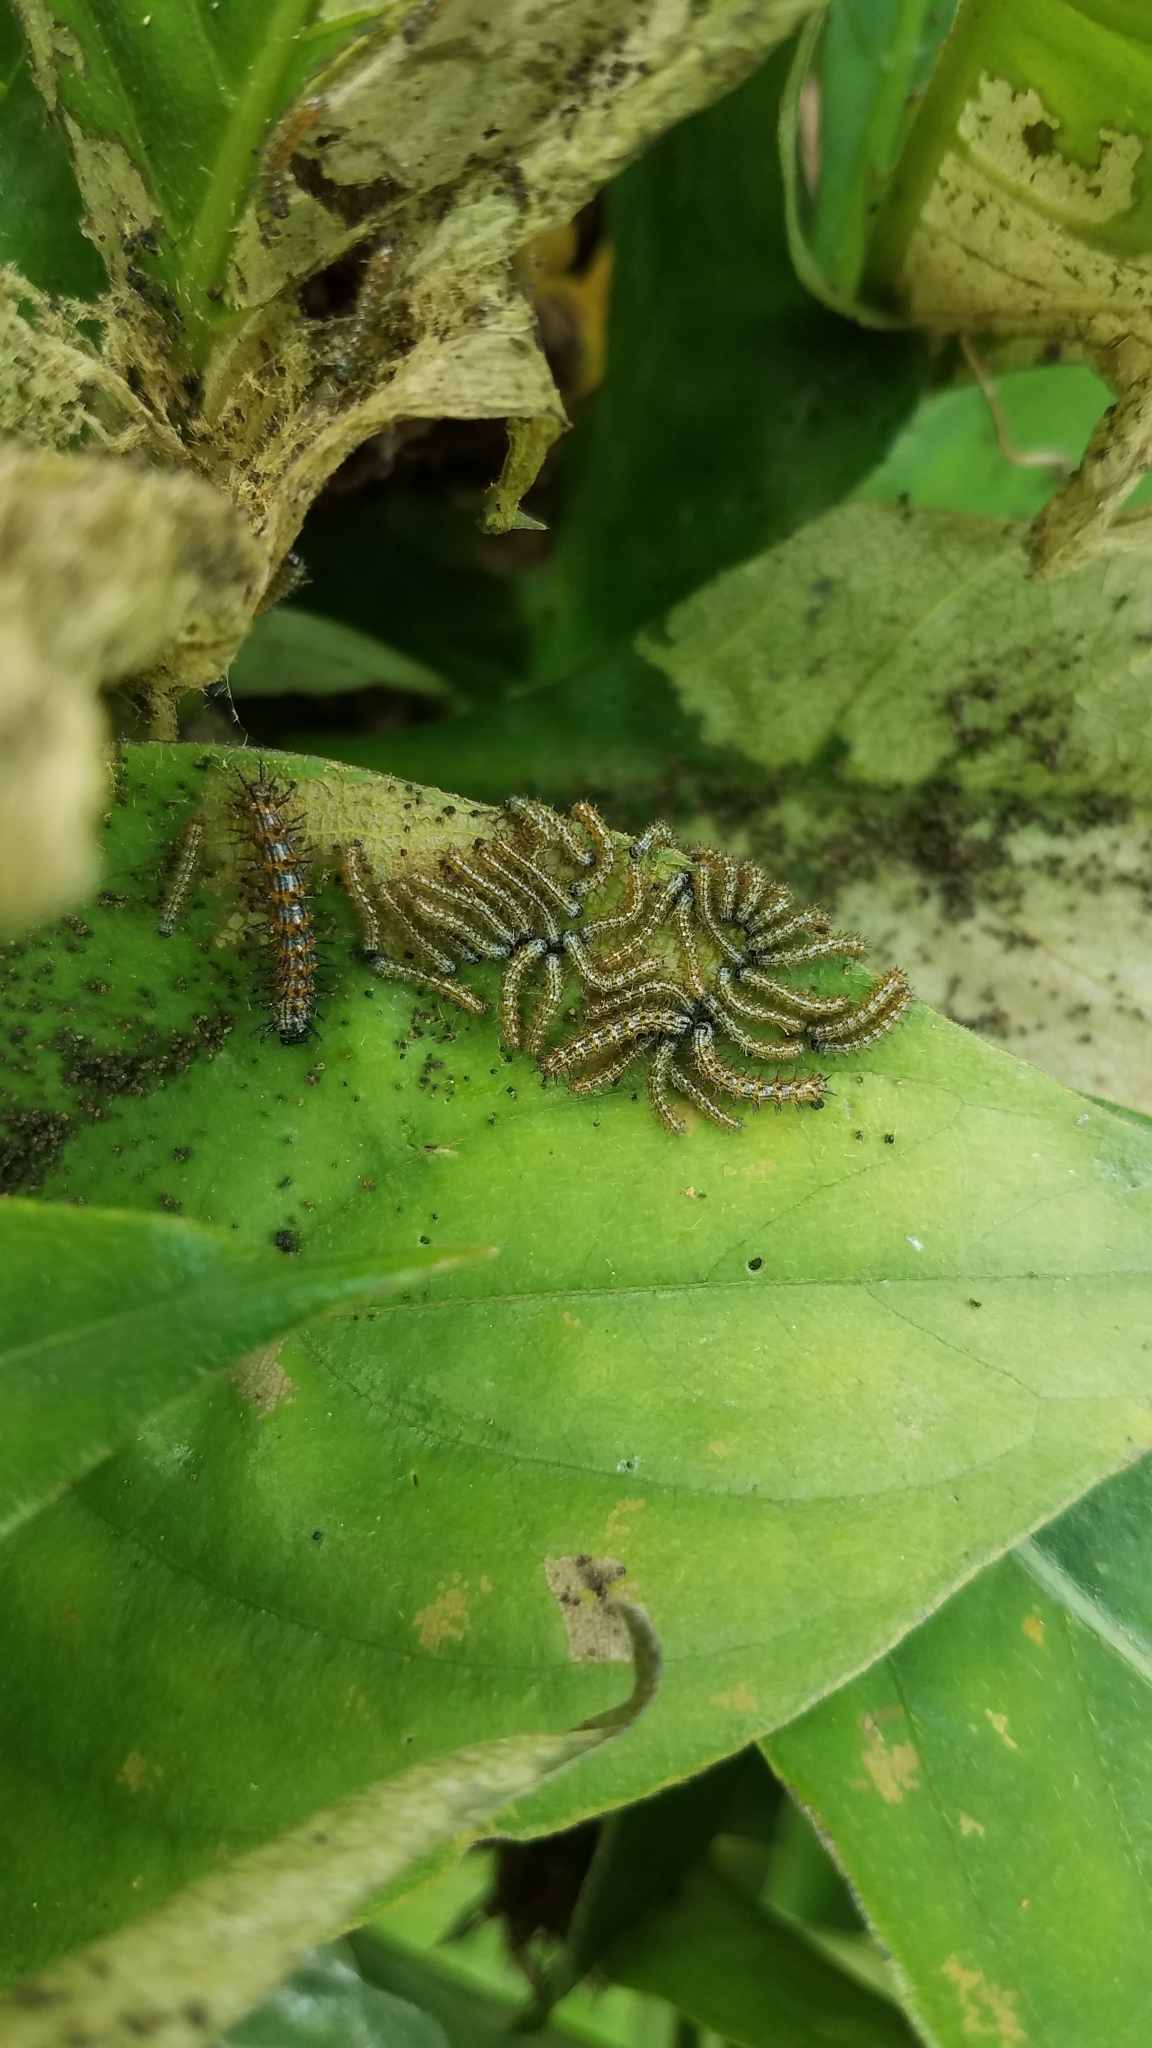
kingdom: Animalia
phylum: Arthropoda
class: Insecta
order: Lepidoptera
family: Nymphalidae
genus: Chlosyne
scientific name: Chlosyne hippodrome
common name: Simple patch
